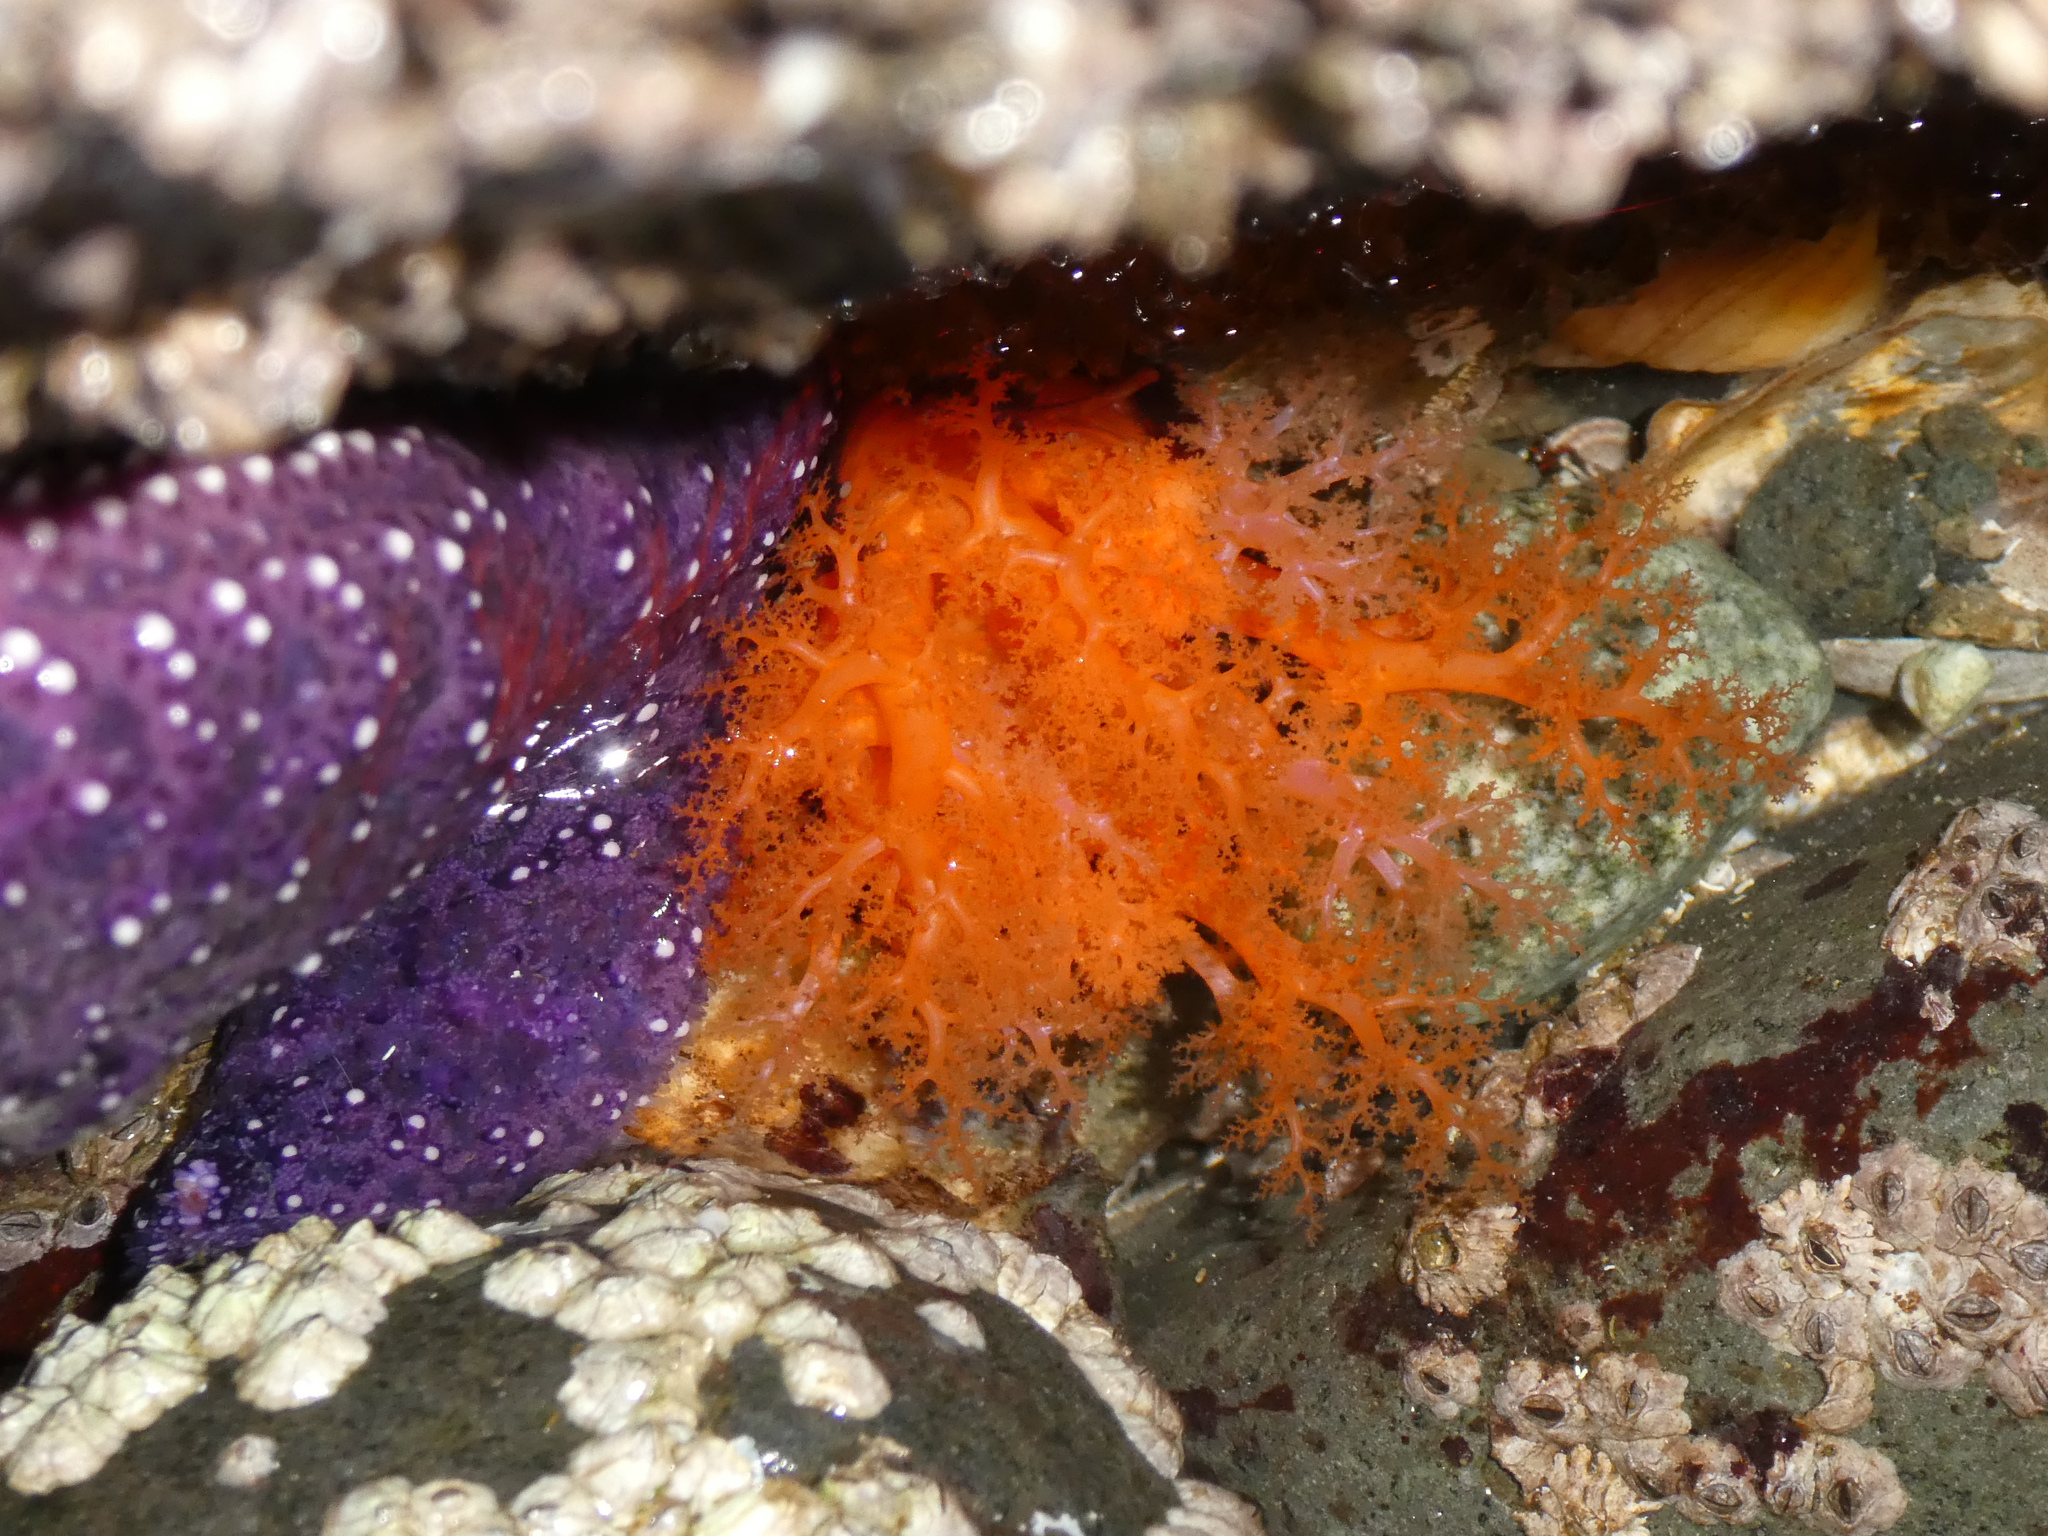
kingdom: Animalia
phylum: Echinodermata
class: Holothuroidea
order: Dendrochirotida
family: Cucumariidae
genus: Cucumaria
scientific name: Cucumaria miniata
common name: Orange sea cucumber
